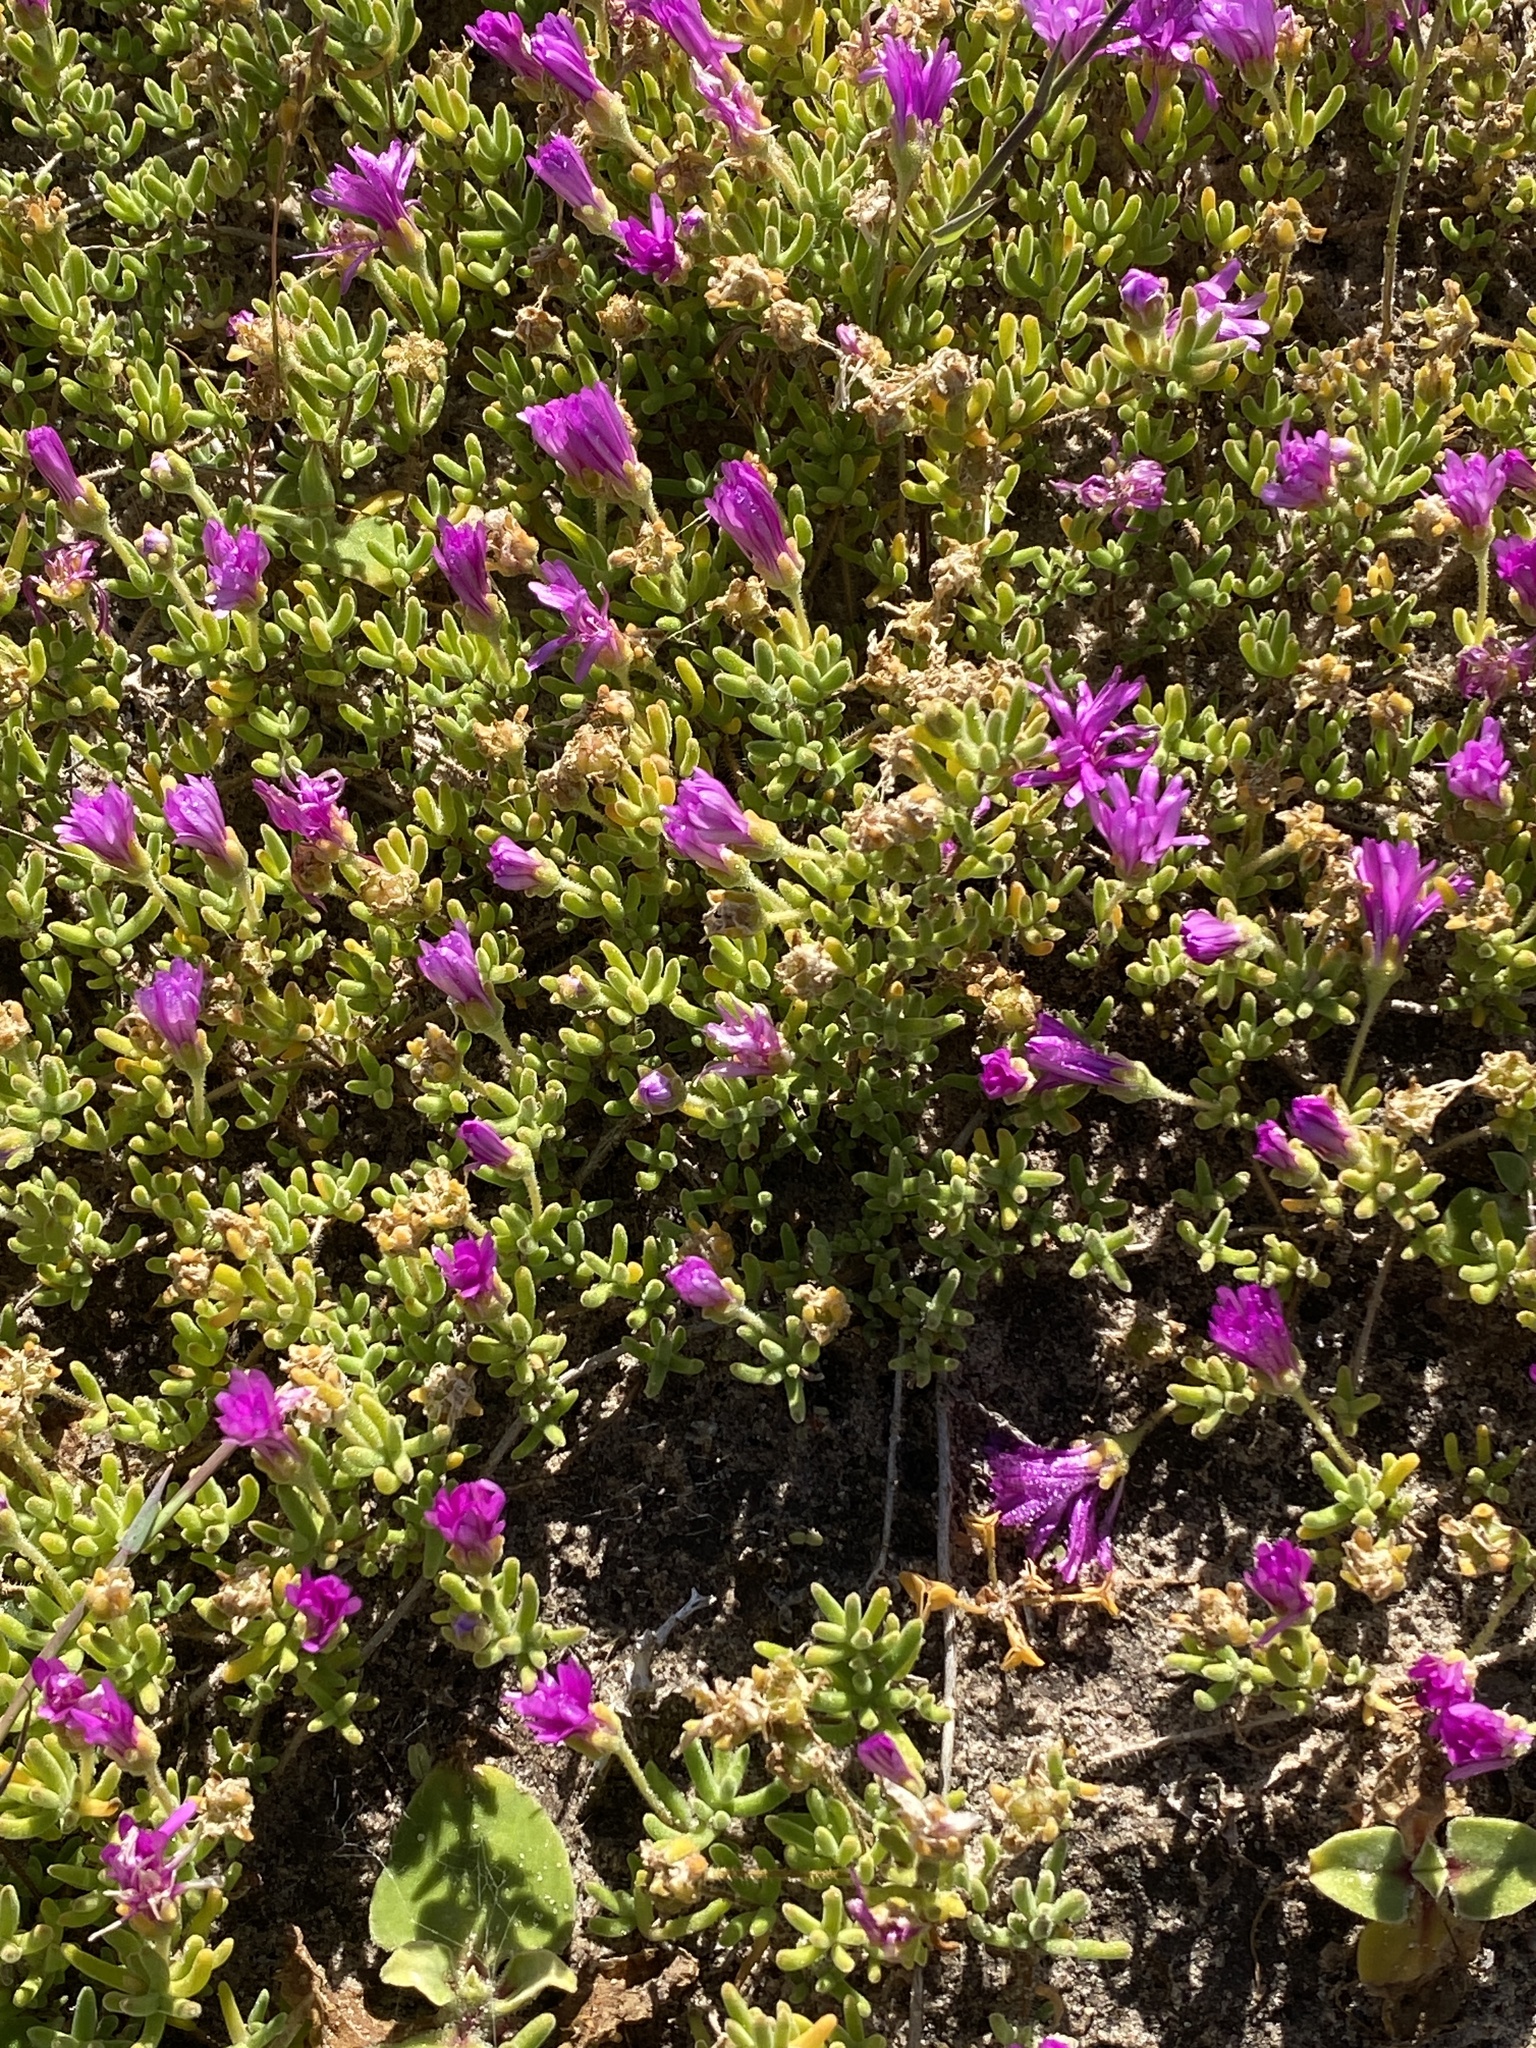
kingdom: Plantae
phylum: Tracheophyta
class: Magnoliopsida
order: Caryophyllales
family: Aizoaceae
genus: Drosanthemum
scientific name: Drosanthemum floribundum
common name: Pale dewplant
